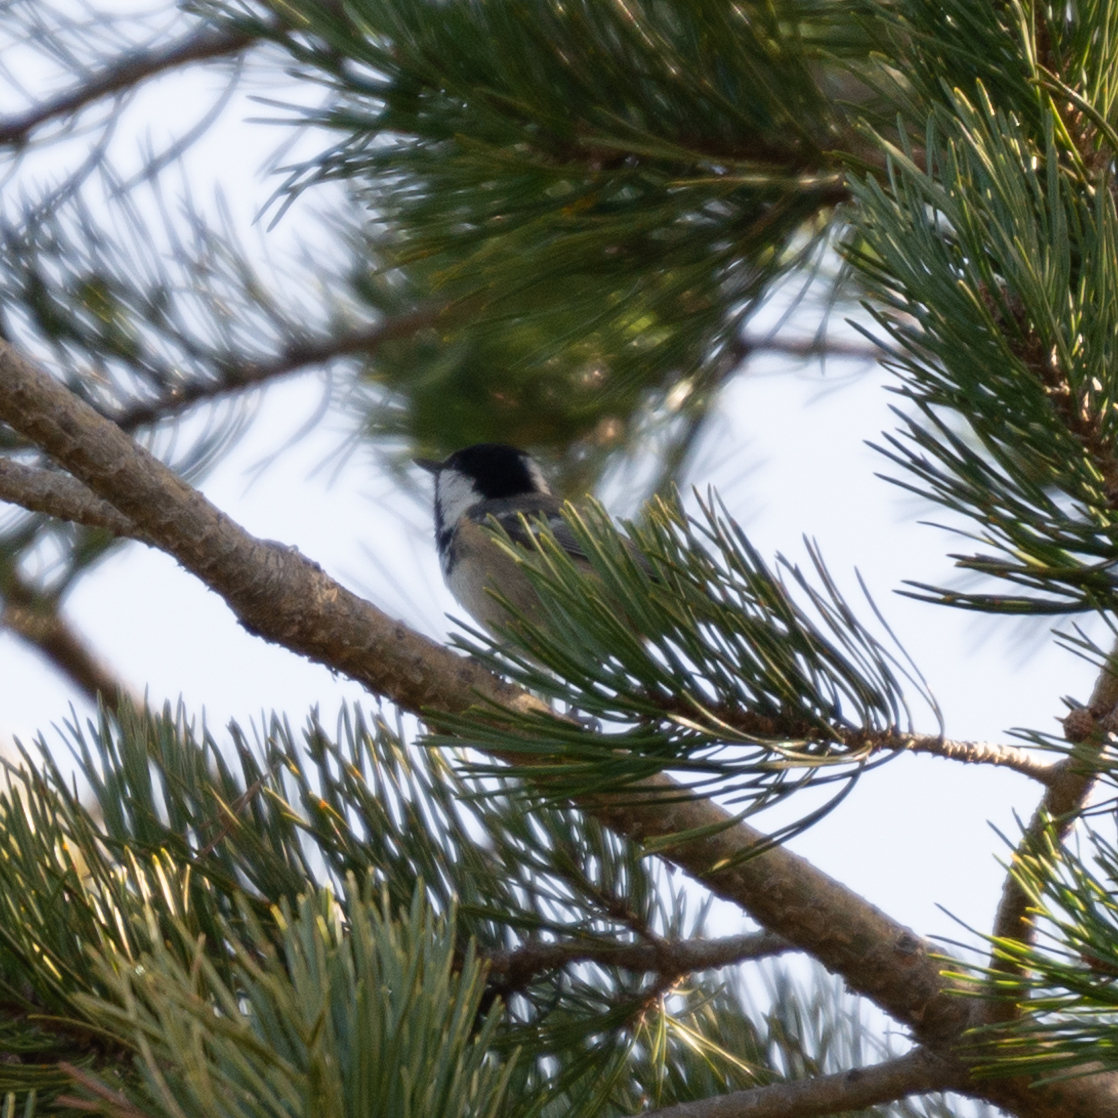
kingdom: Animalia
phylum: Chordata
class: Aves
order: Passeriformes
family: Paridae
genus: Periparus
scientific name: Periparus ater
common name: Coal tit
